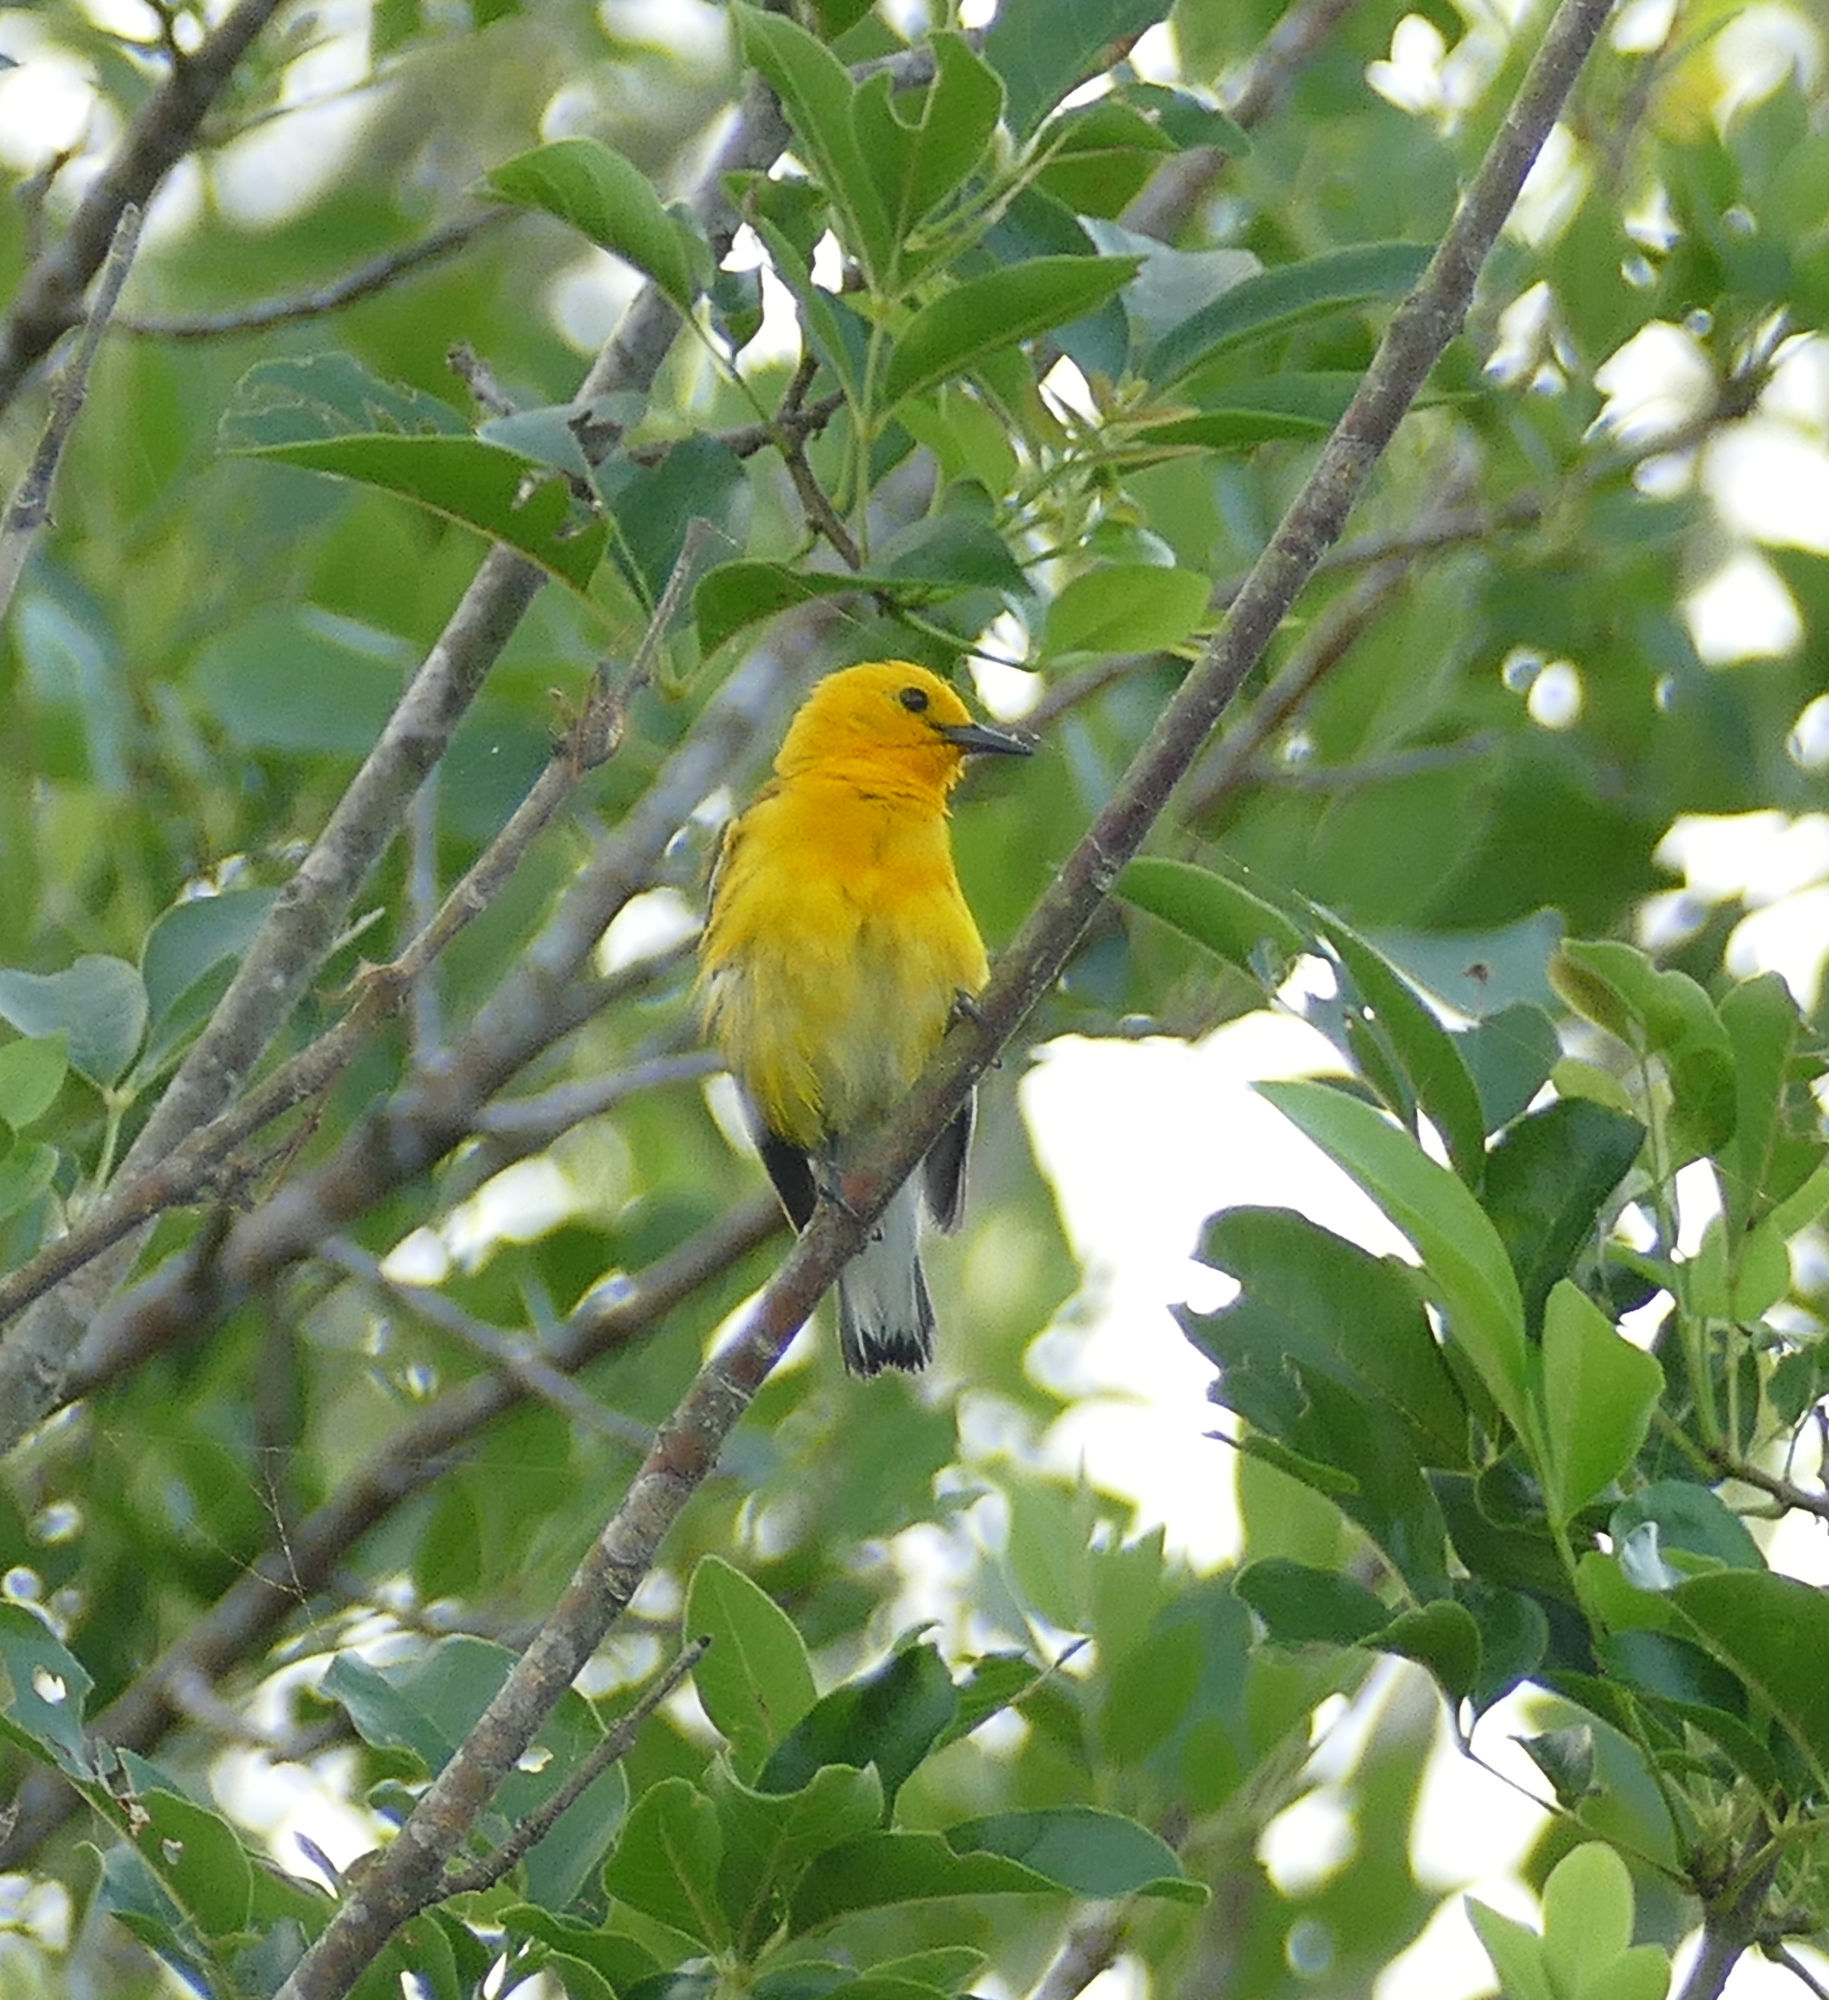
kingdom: Animalia
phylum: Chordata
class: Aves
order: Passeriformes
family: Parulidae
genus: Protonotaria
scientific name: Protonotaria citrea
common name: Prothonotary warbler
